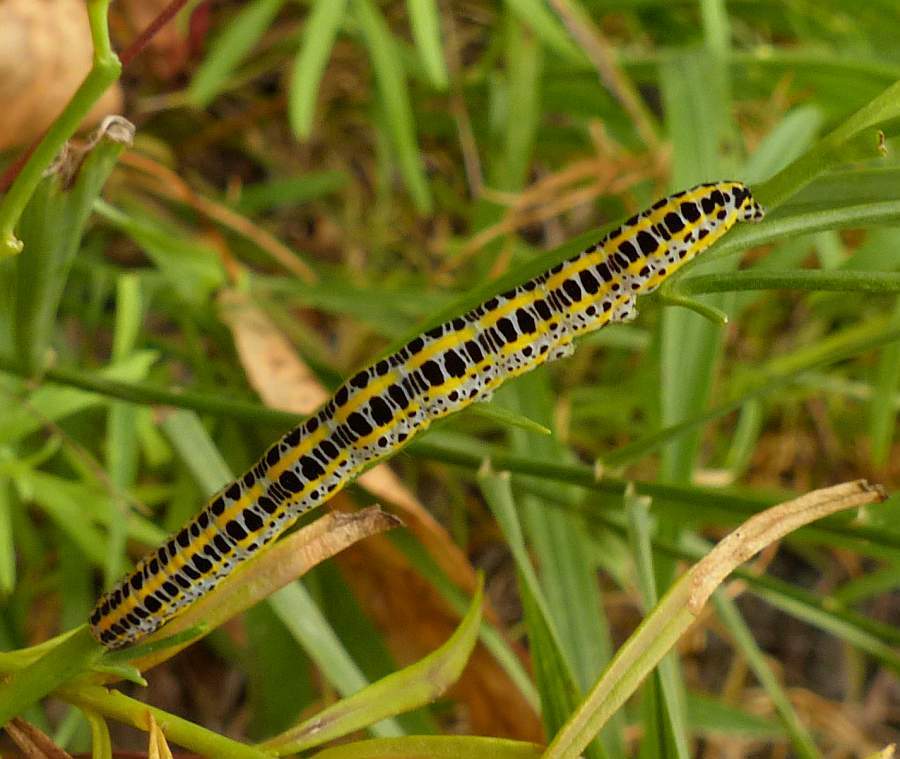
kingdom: Animalia
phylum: Arthropoda
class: Insecta
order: Lepidoptera
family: Noctuidae
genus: Calophasia
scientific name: Calophasia lunula
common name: Toadflax brocade
